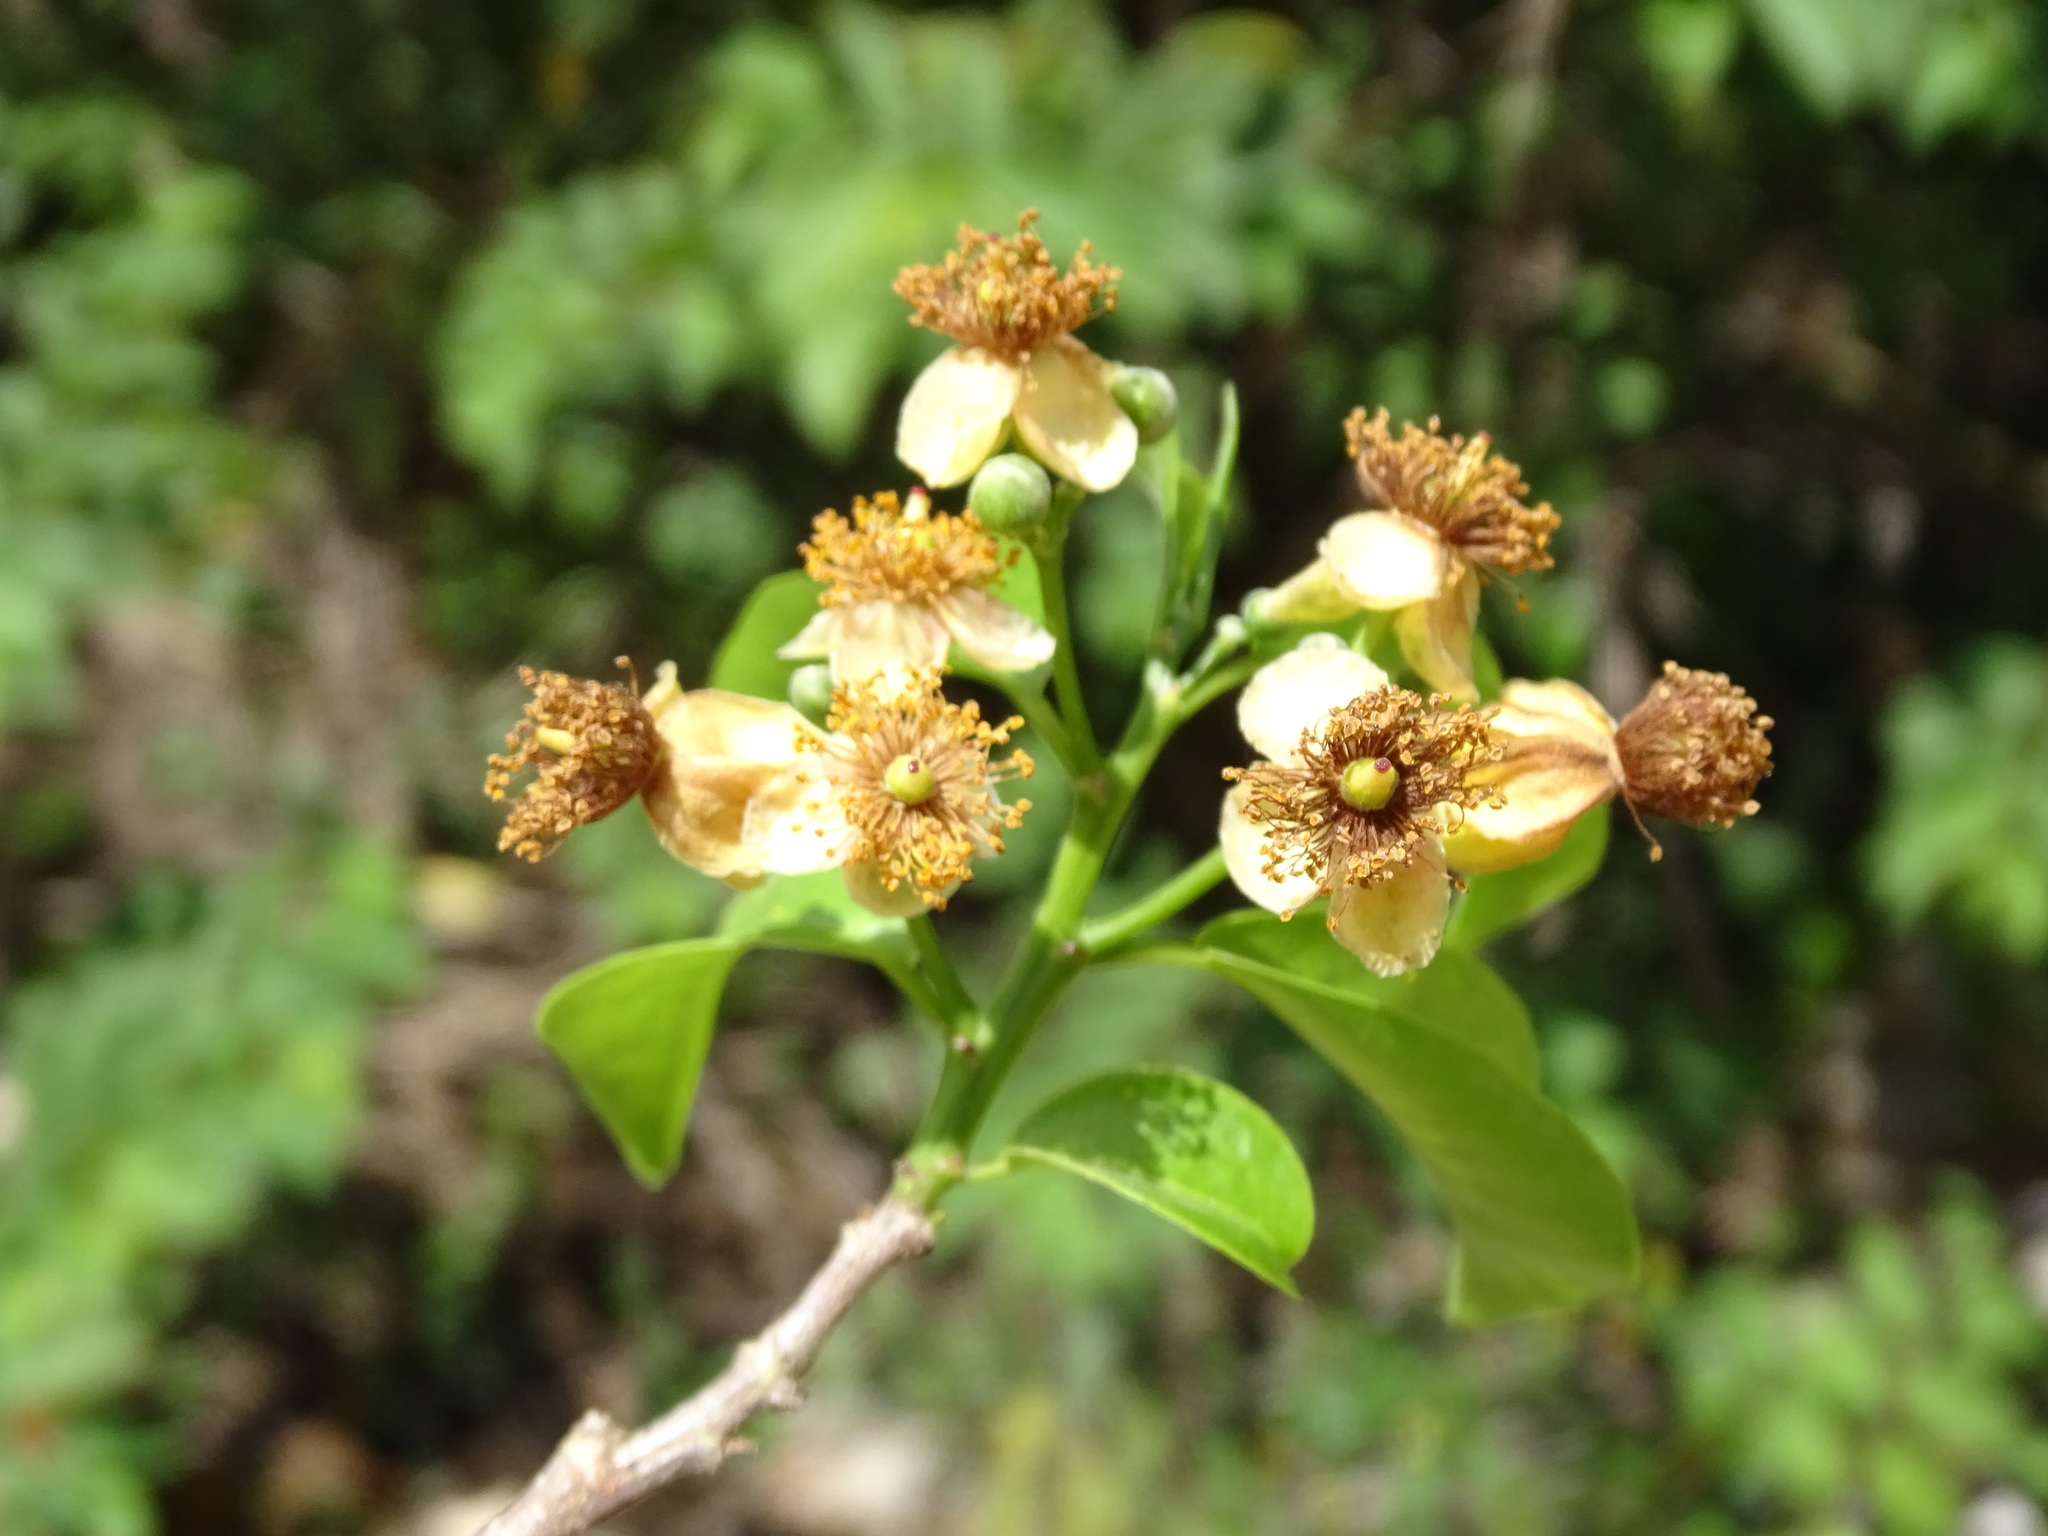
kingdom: Plantae
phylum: Tracheophyta
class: Magnoliopsida
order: Malpighiales
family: Salicaceae
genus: Casearia
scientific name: Casearia icosandra
